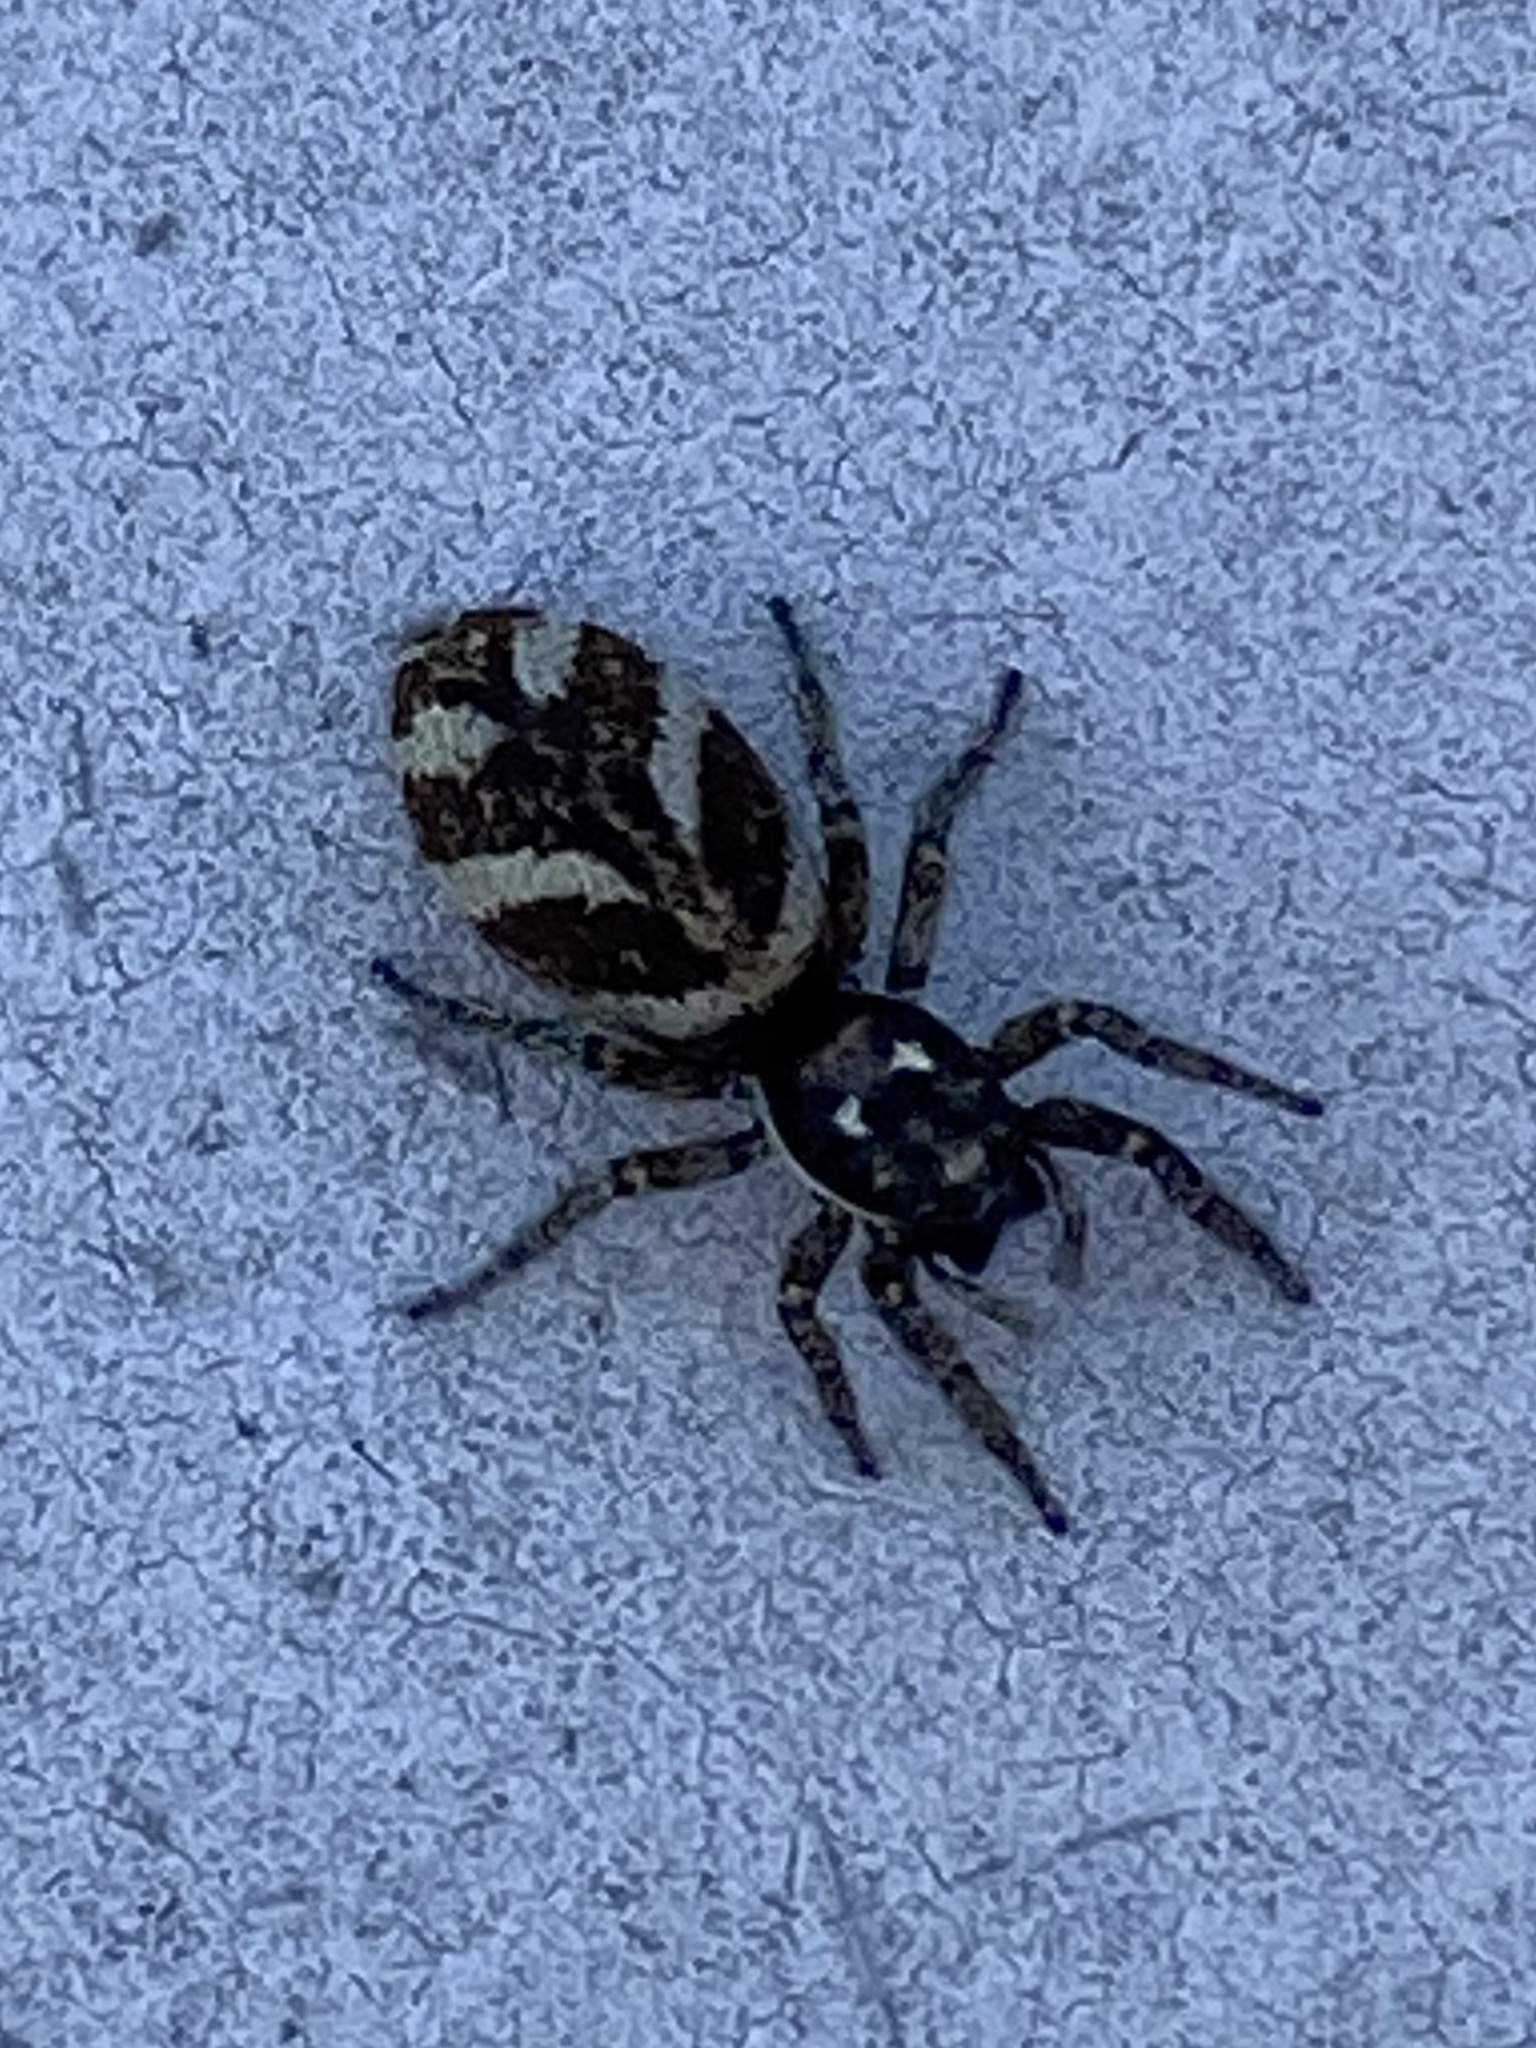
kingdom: Animalia
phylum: Arthropoda
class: Arachnida
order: Araneae
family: Salticidae
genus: Salticus
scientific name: Salticus scenicus
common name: Zebra jumper
